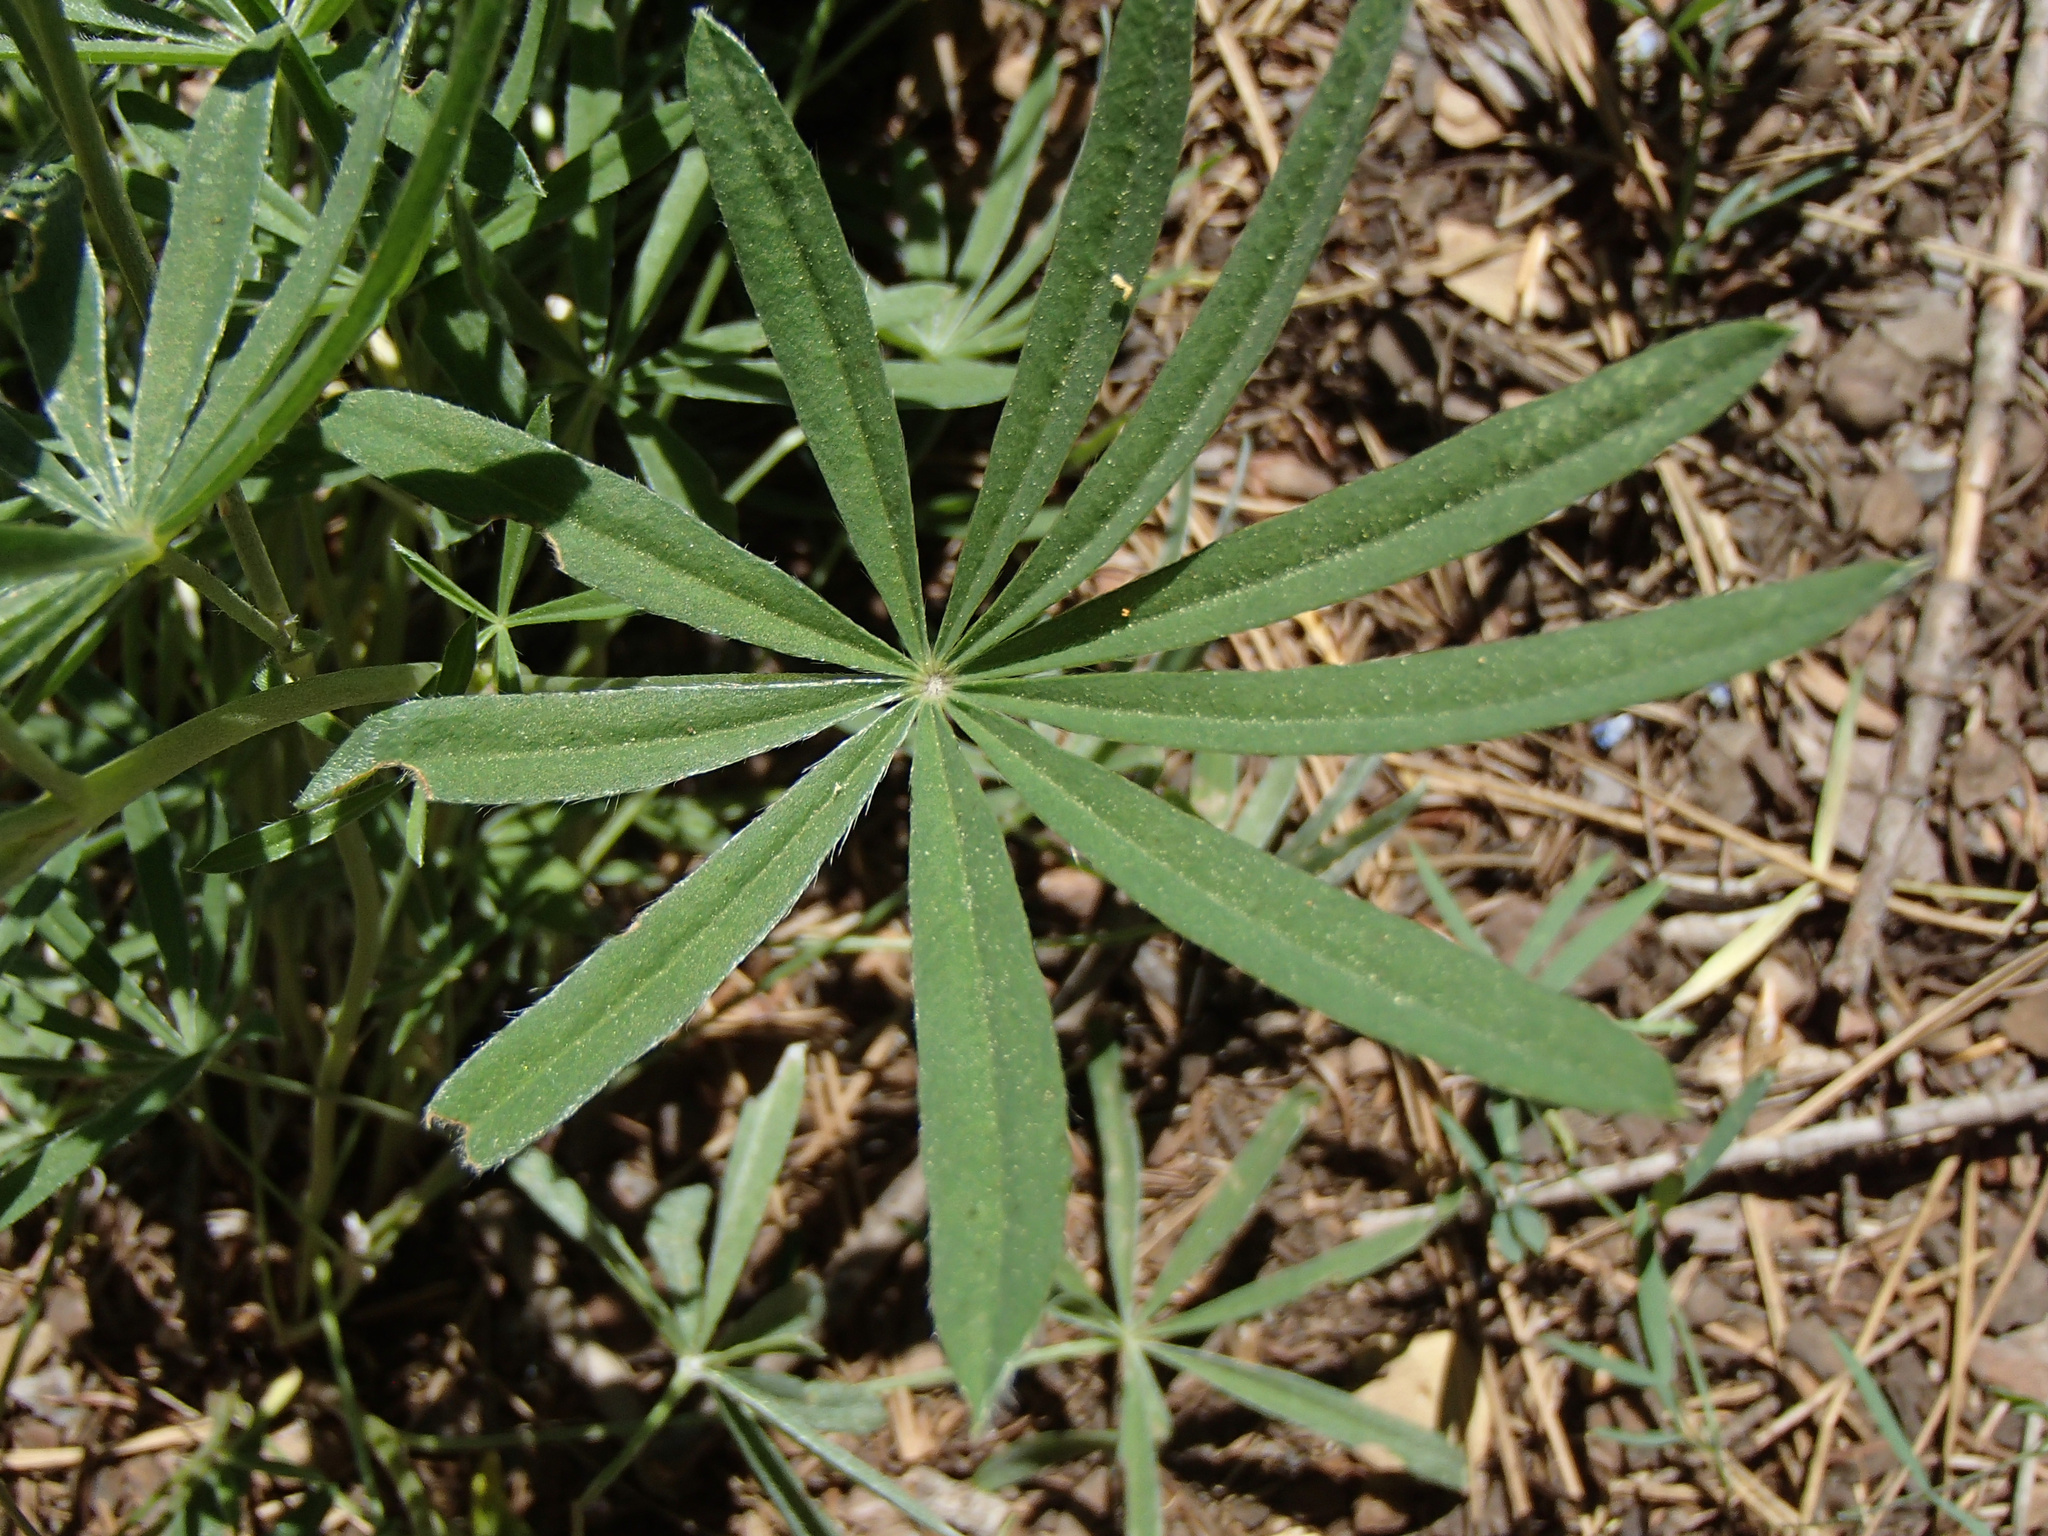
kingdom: Plantae
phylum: Tracheophyta
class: Magnoliopsida
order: Fabales
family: Fabaceae
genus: Lupinus
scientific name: Lupinus arbustus
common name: Montana lupine
